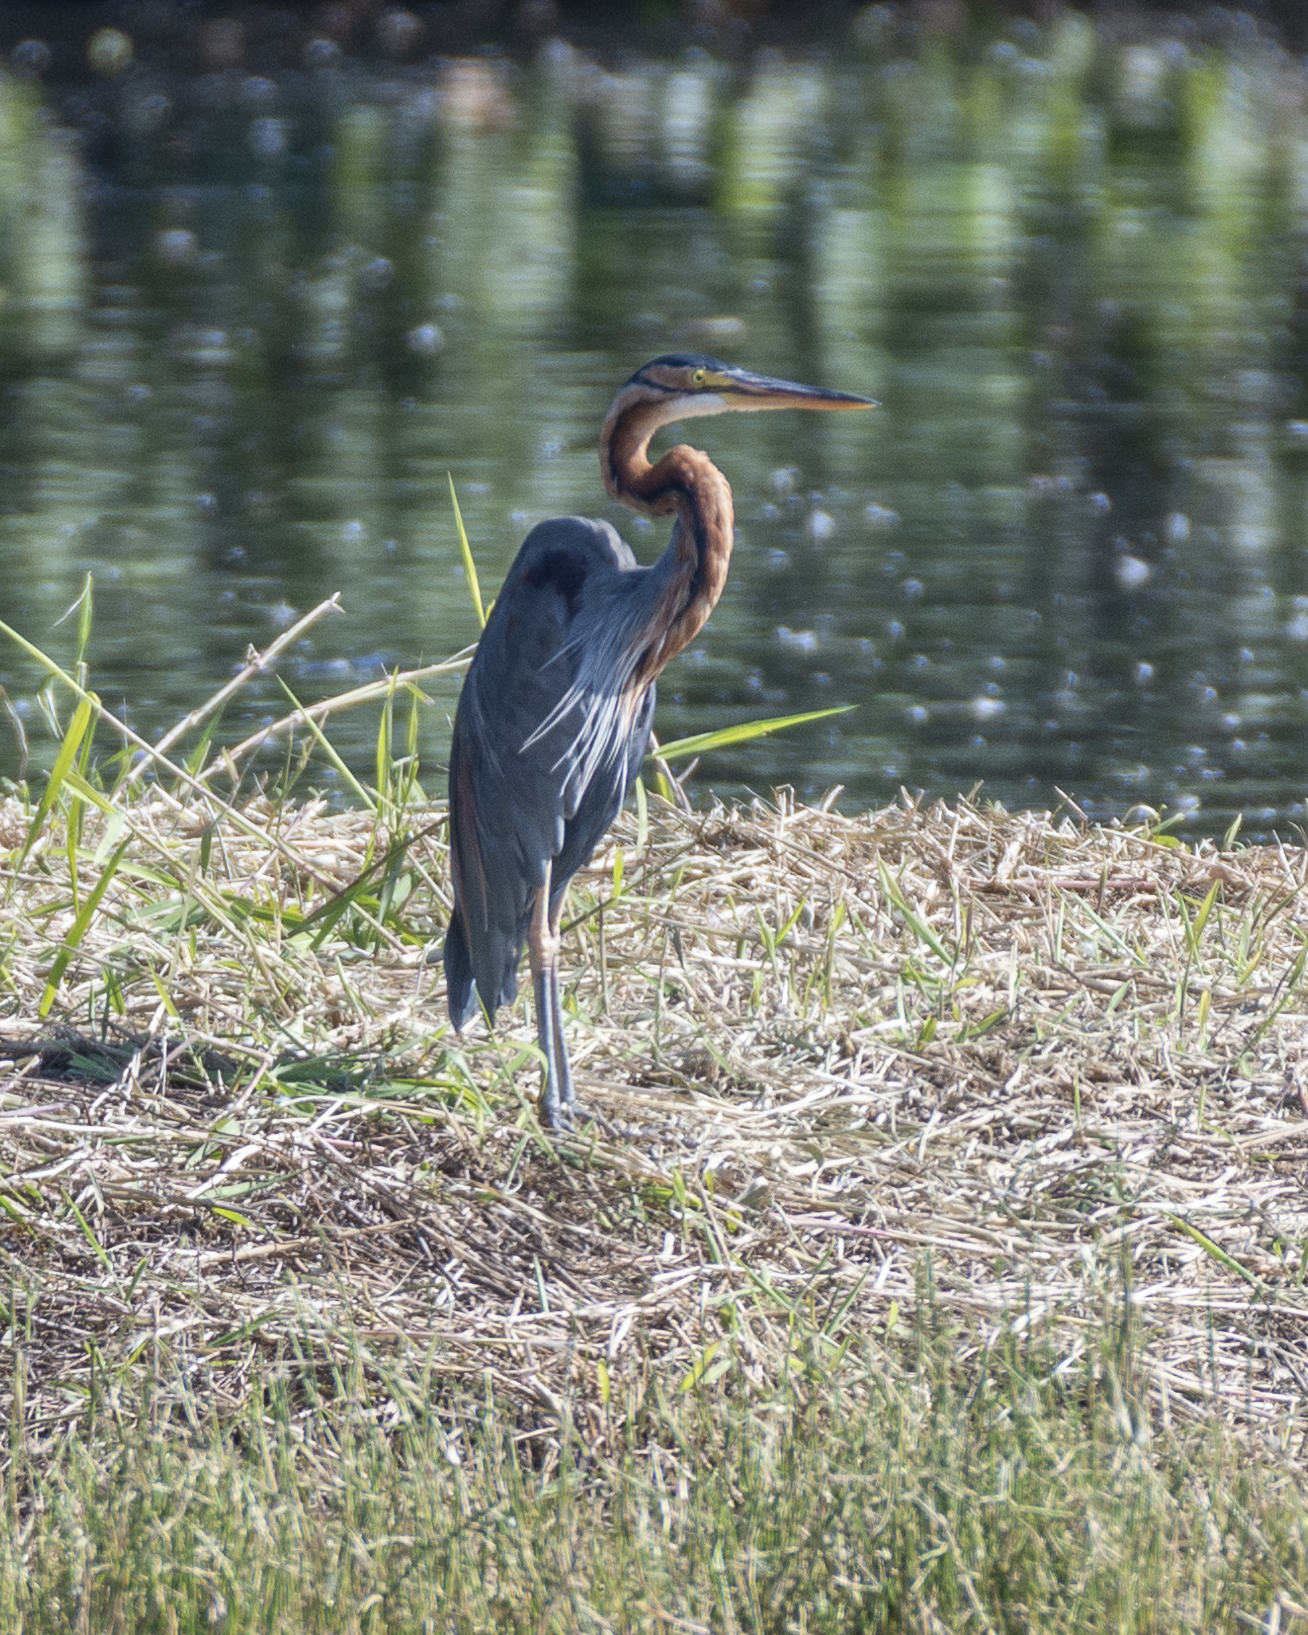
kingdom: Animalia
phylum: Chordata
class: Aves
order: Pelecaniformes
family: Ardeidae
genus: Ardea
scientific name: Ardea purpurea
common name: Purple heron
